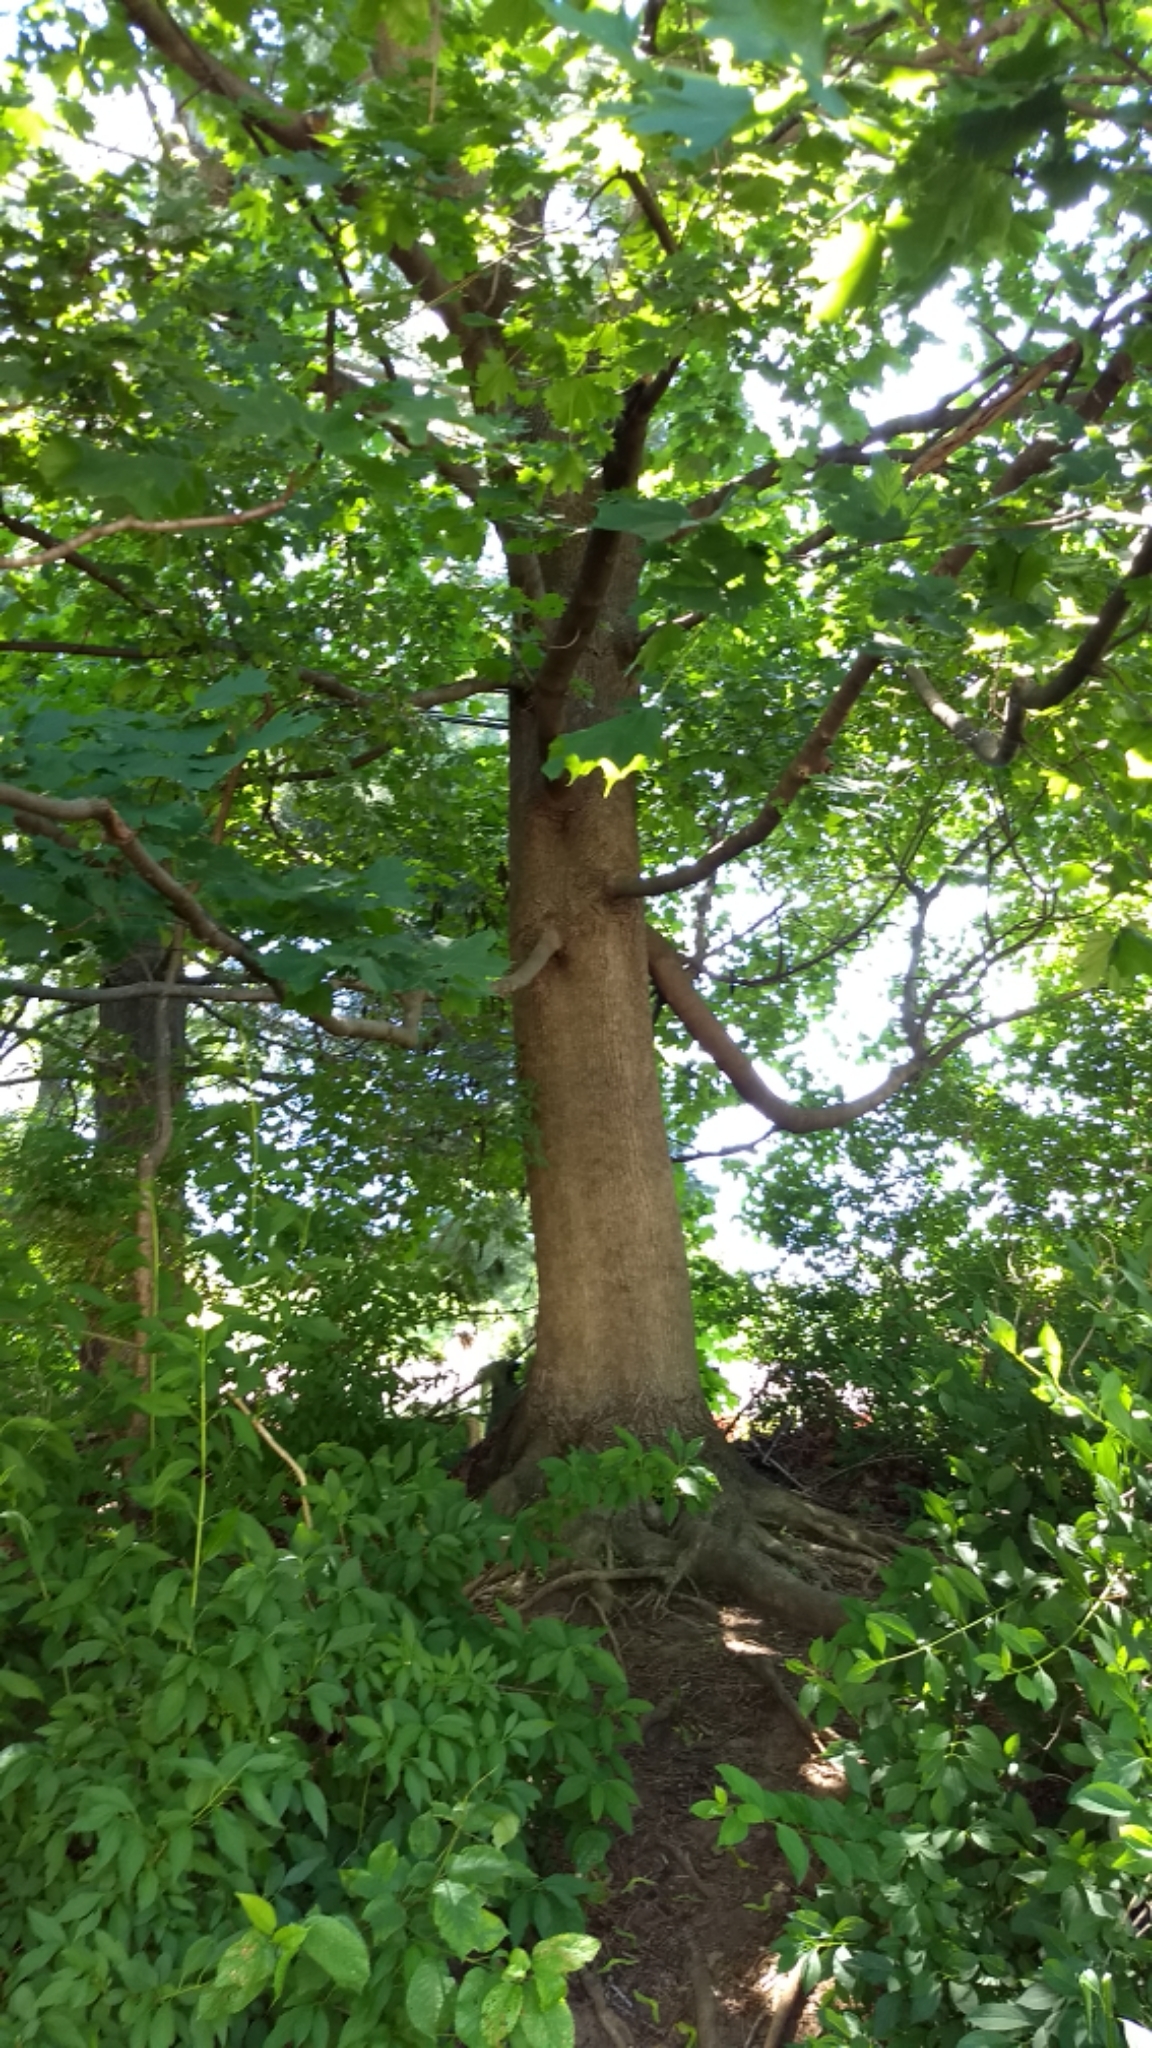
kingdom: Plantae
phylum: Tracheophyta
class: Magnoliopsida
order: Sapindales
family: Sapindaceae
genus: Acer
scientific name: Acer platanoides
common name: Norway maple
